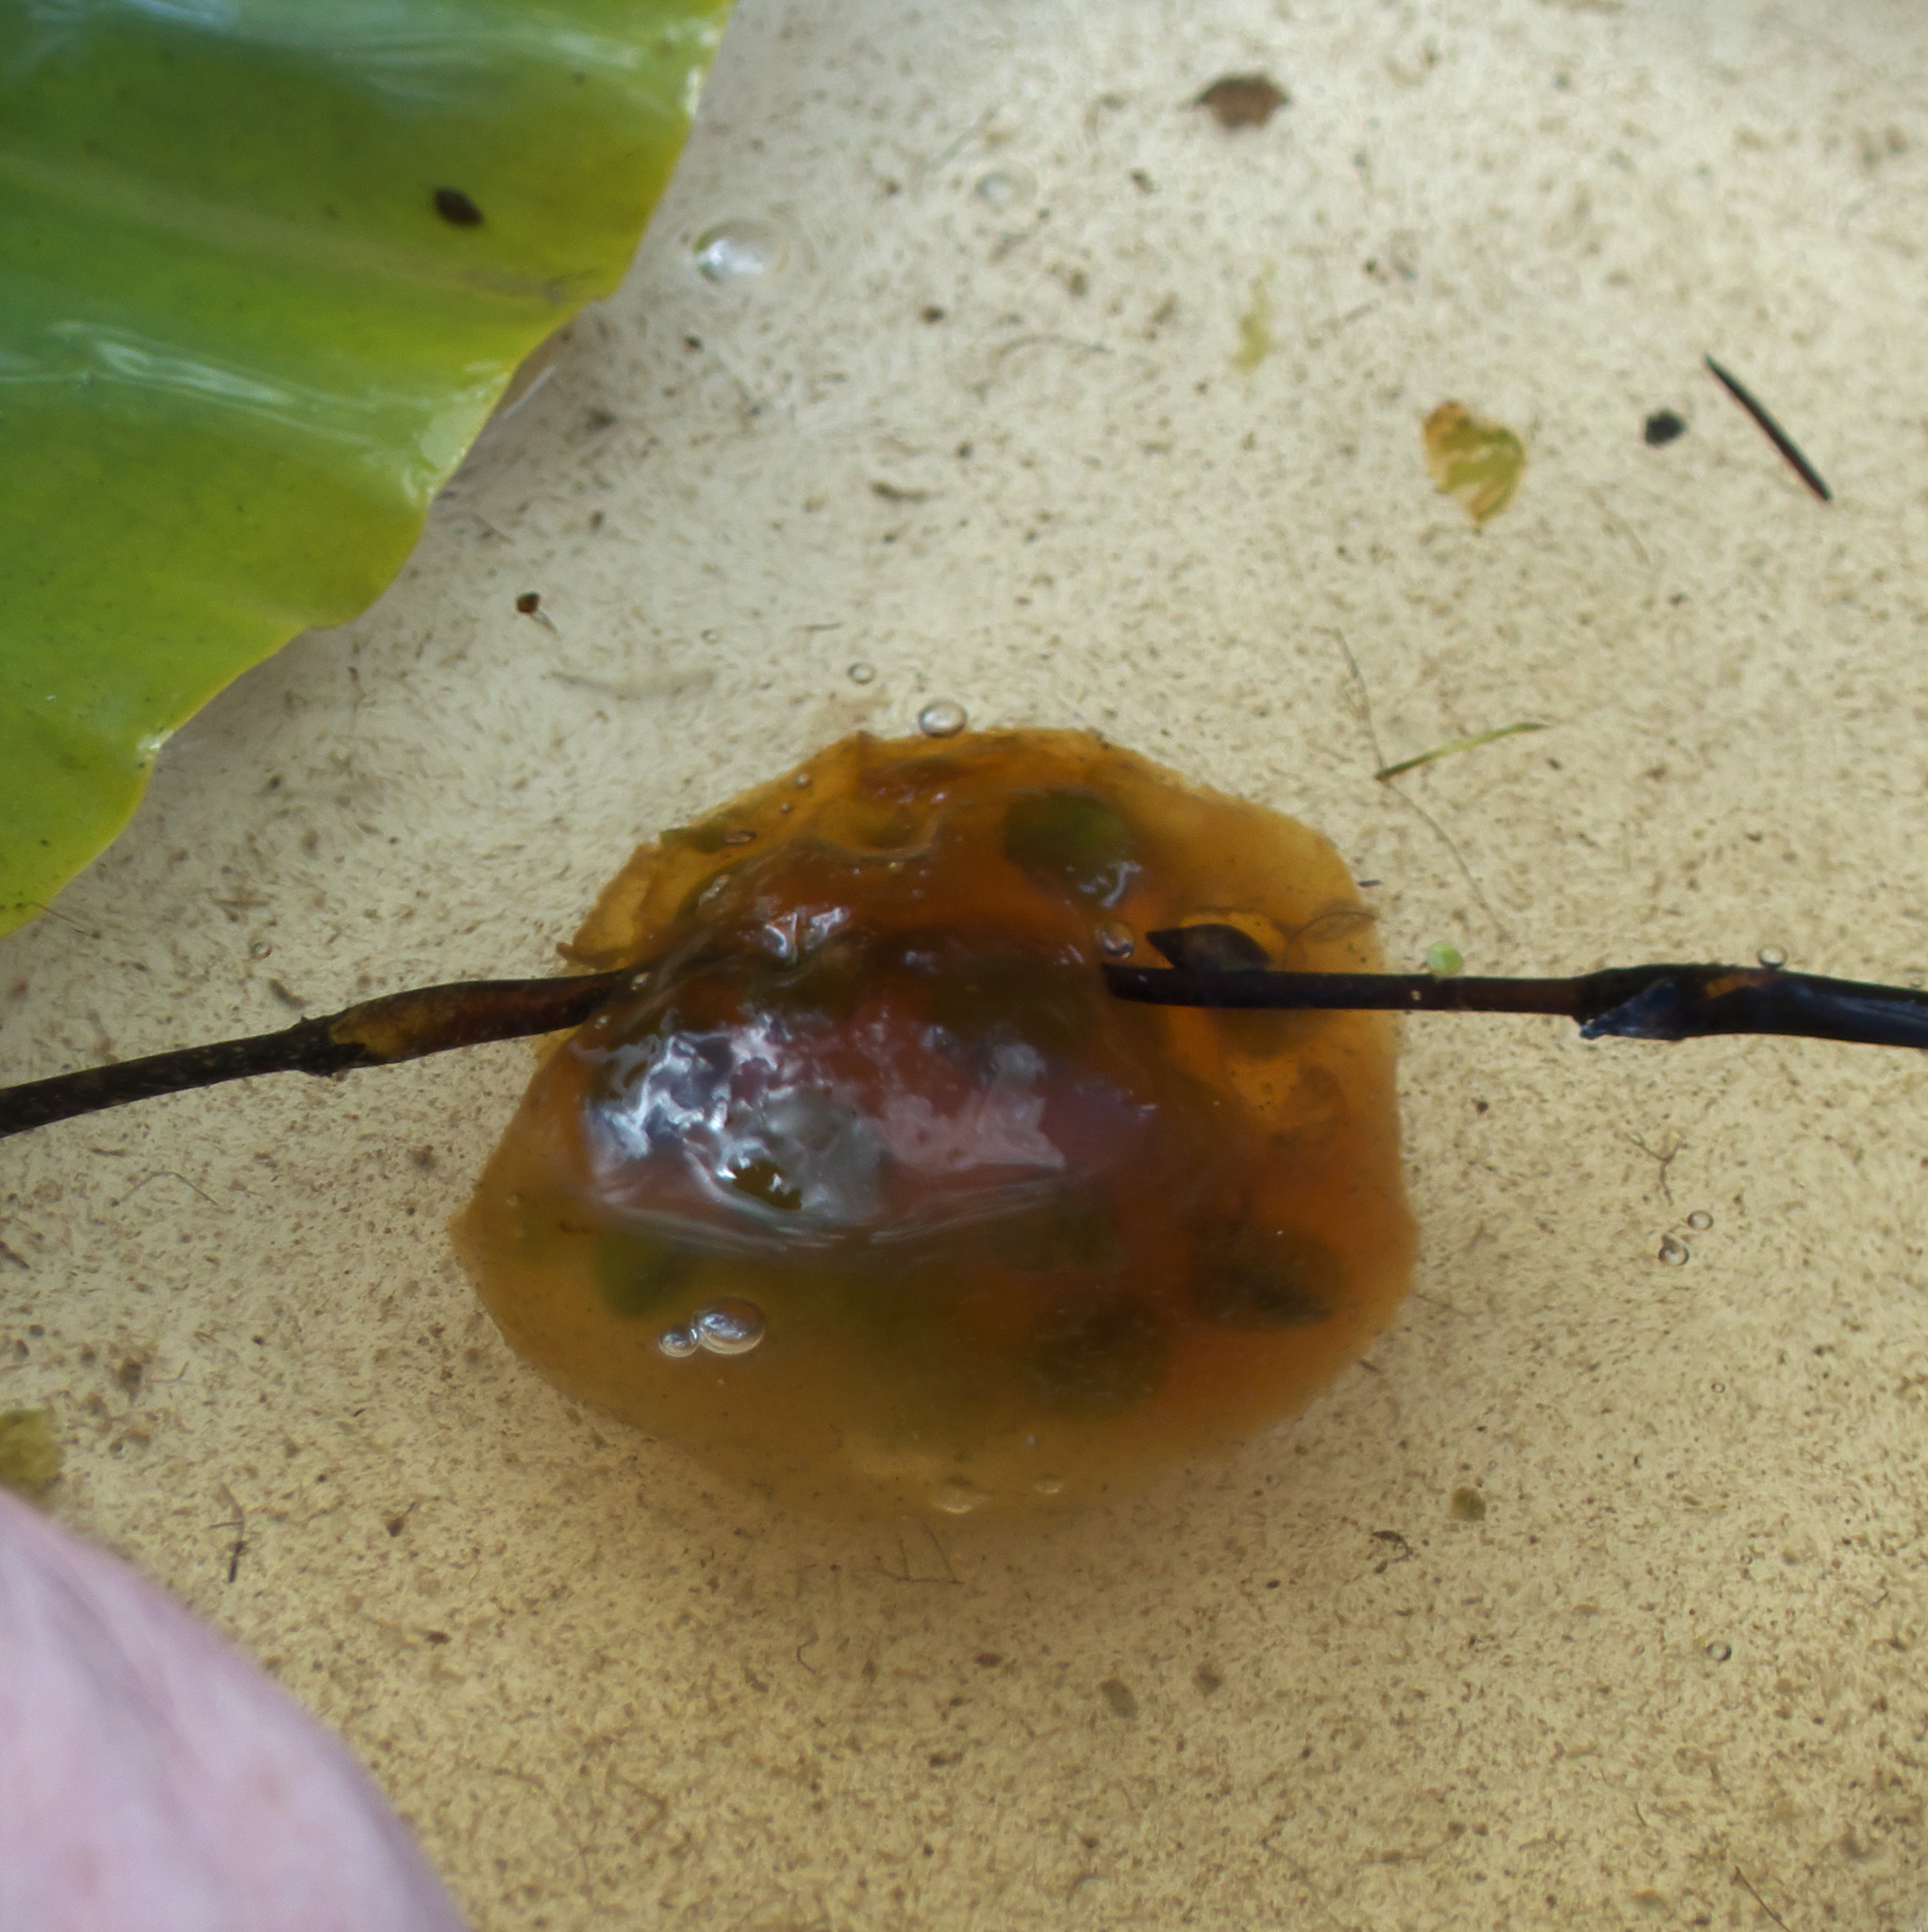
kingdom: Animalia
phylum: Chordata
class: Amphibia
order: Caudata
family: Ambystomatidae
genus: Ambystoma
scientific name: Ambystoma gracile
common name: Northwestern salamander
